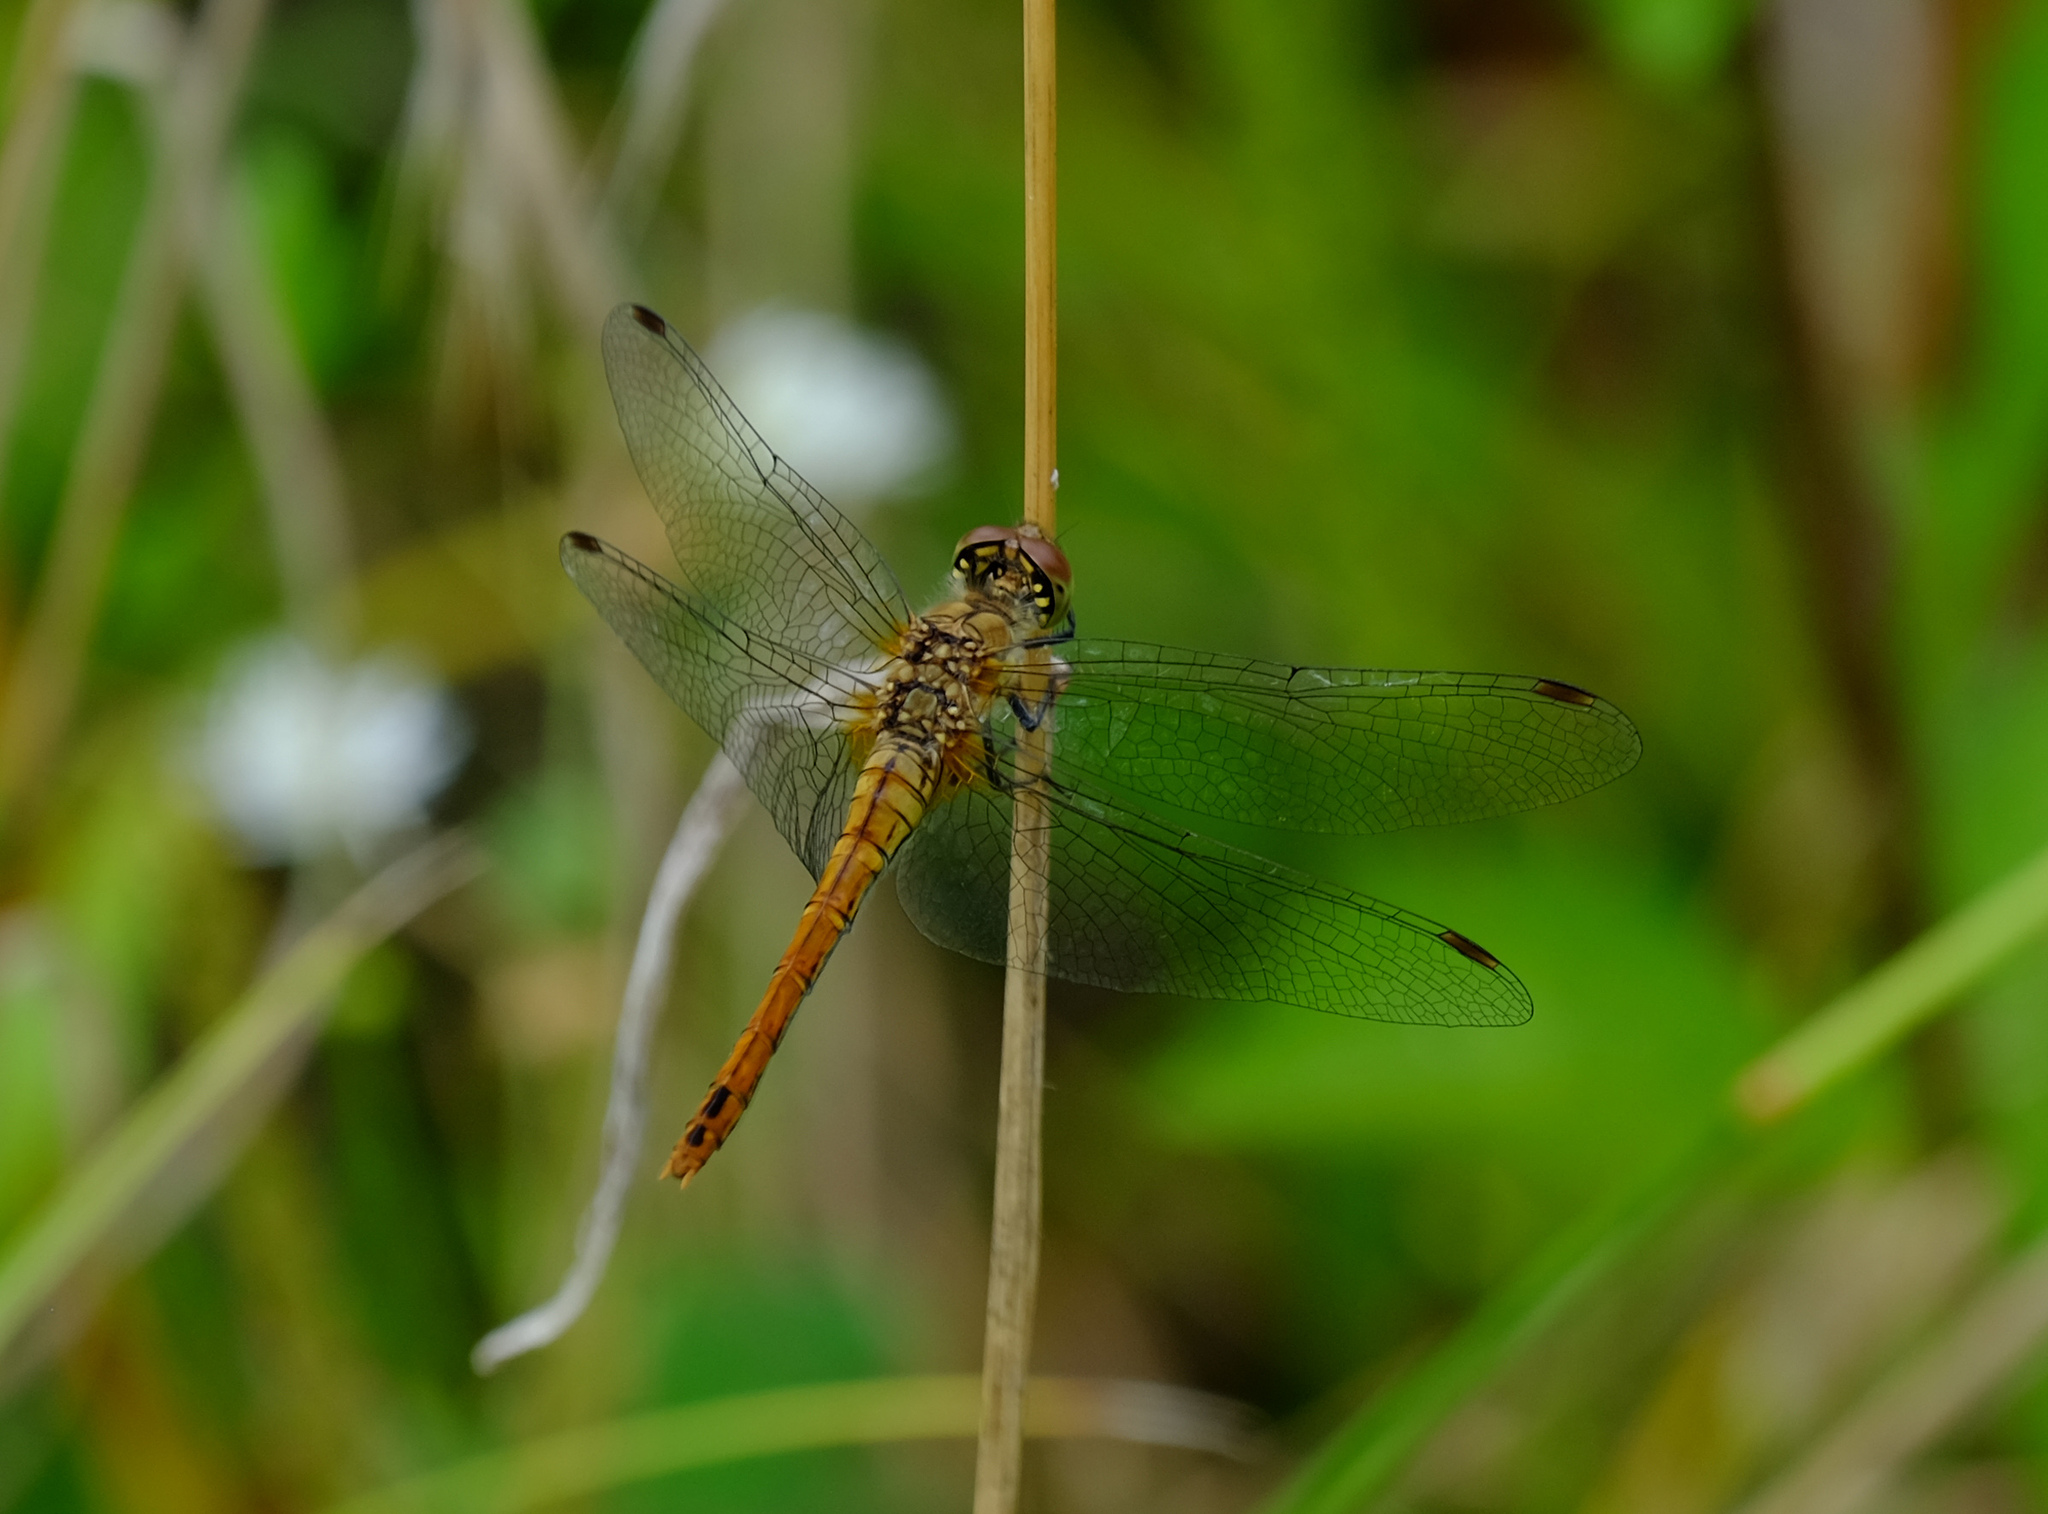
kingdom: Animalia
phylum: Arthropoda
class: Insecta
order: Odonata
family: Libellulidae
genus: Sympetrum
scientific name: Sympetrum sanguineum
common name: Ruddy darter
